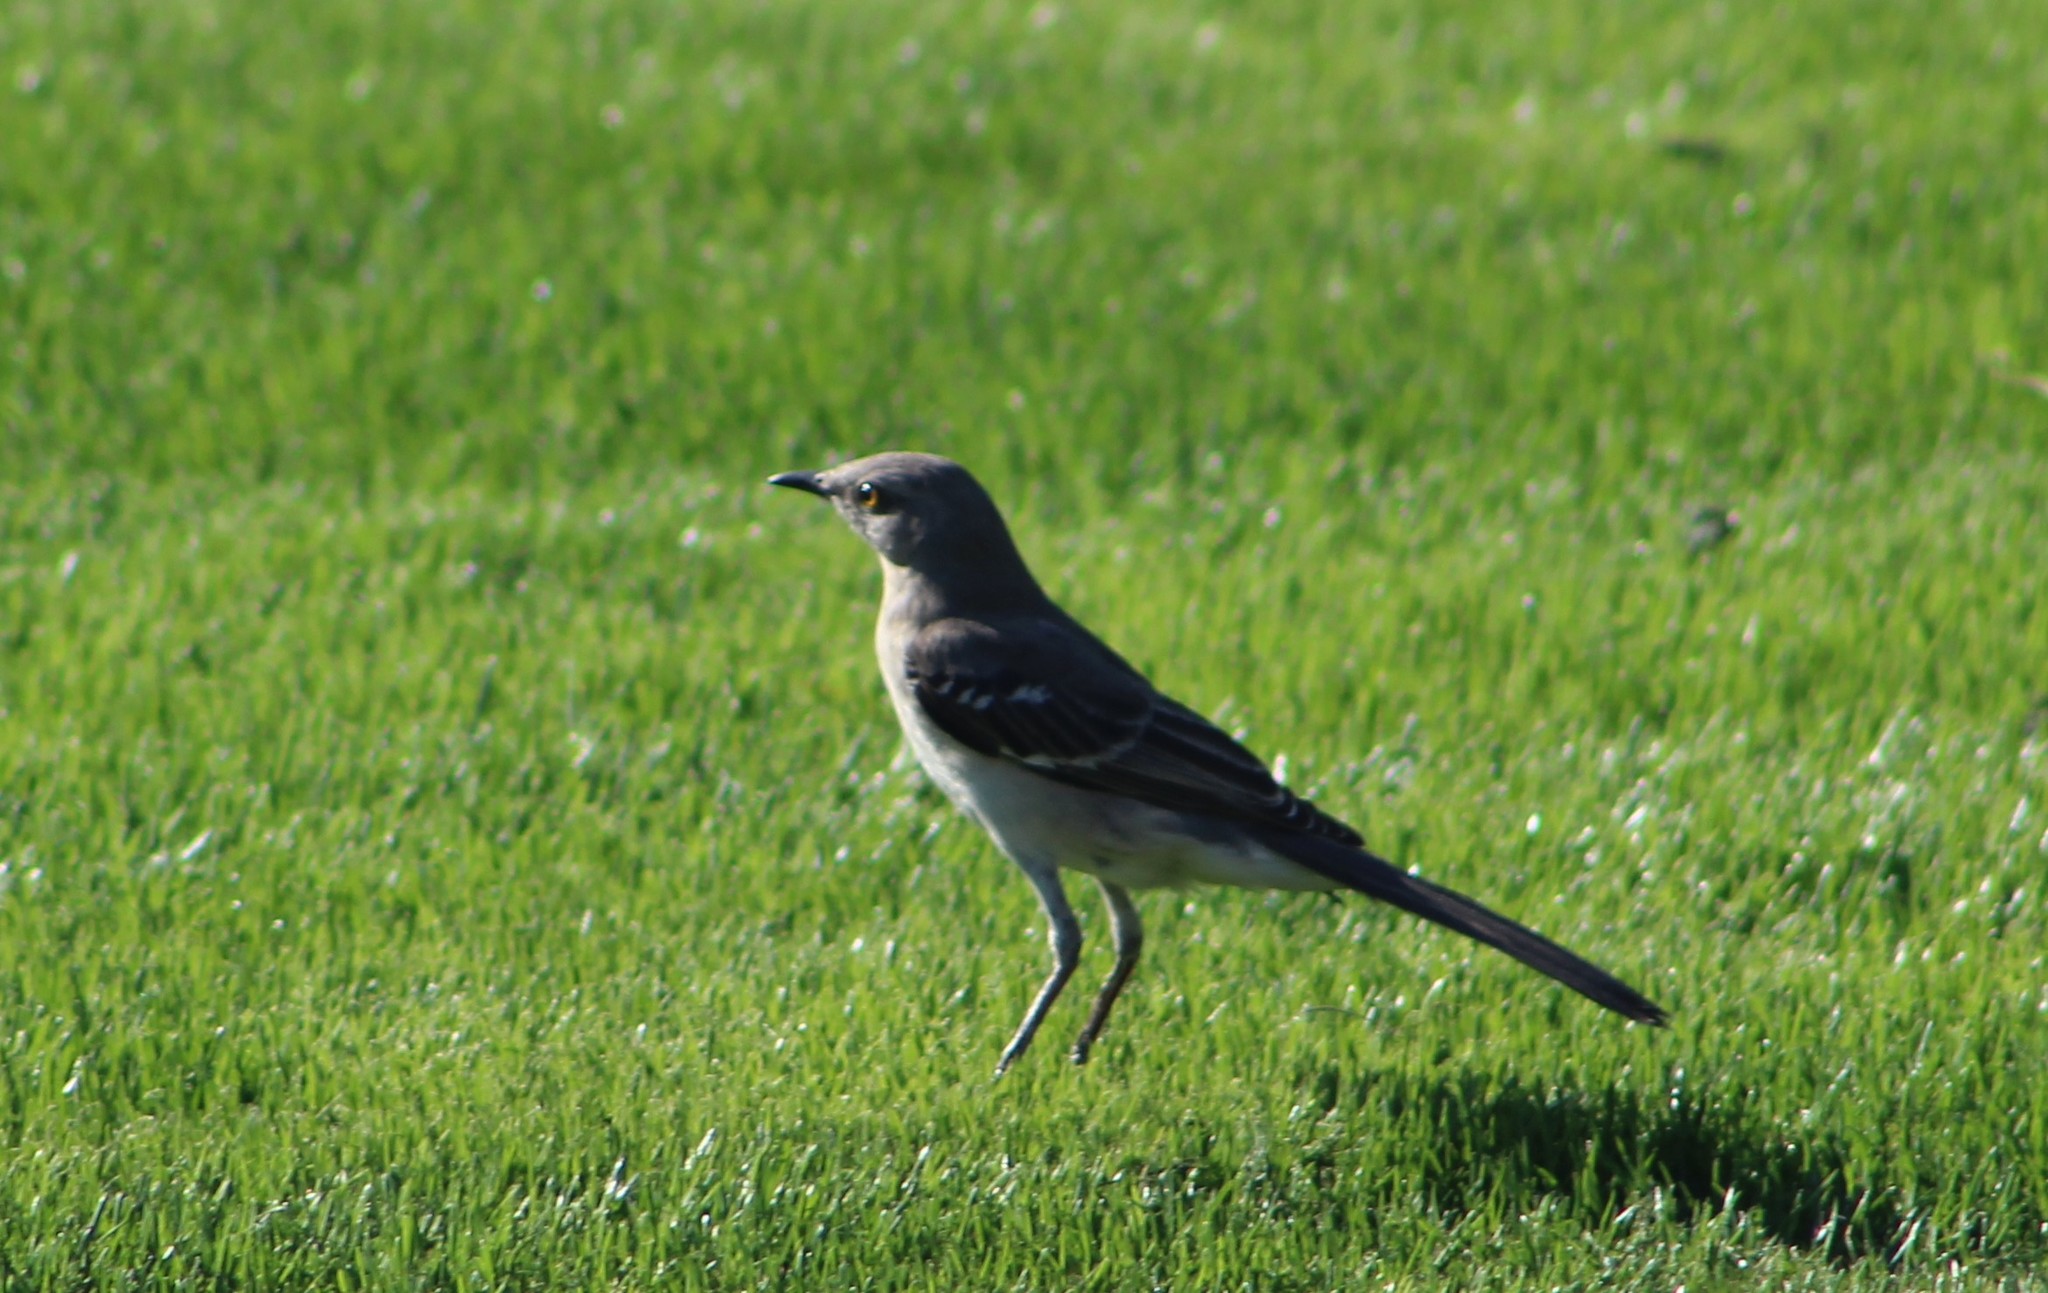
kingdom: Animalia
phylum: Chordata
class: Aves
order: Passeriformes
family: Mimidae
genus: Mimus
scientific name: Mimus polyglottos
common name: Northern mockingbird
